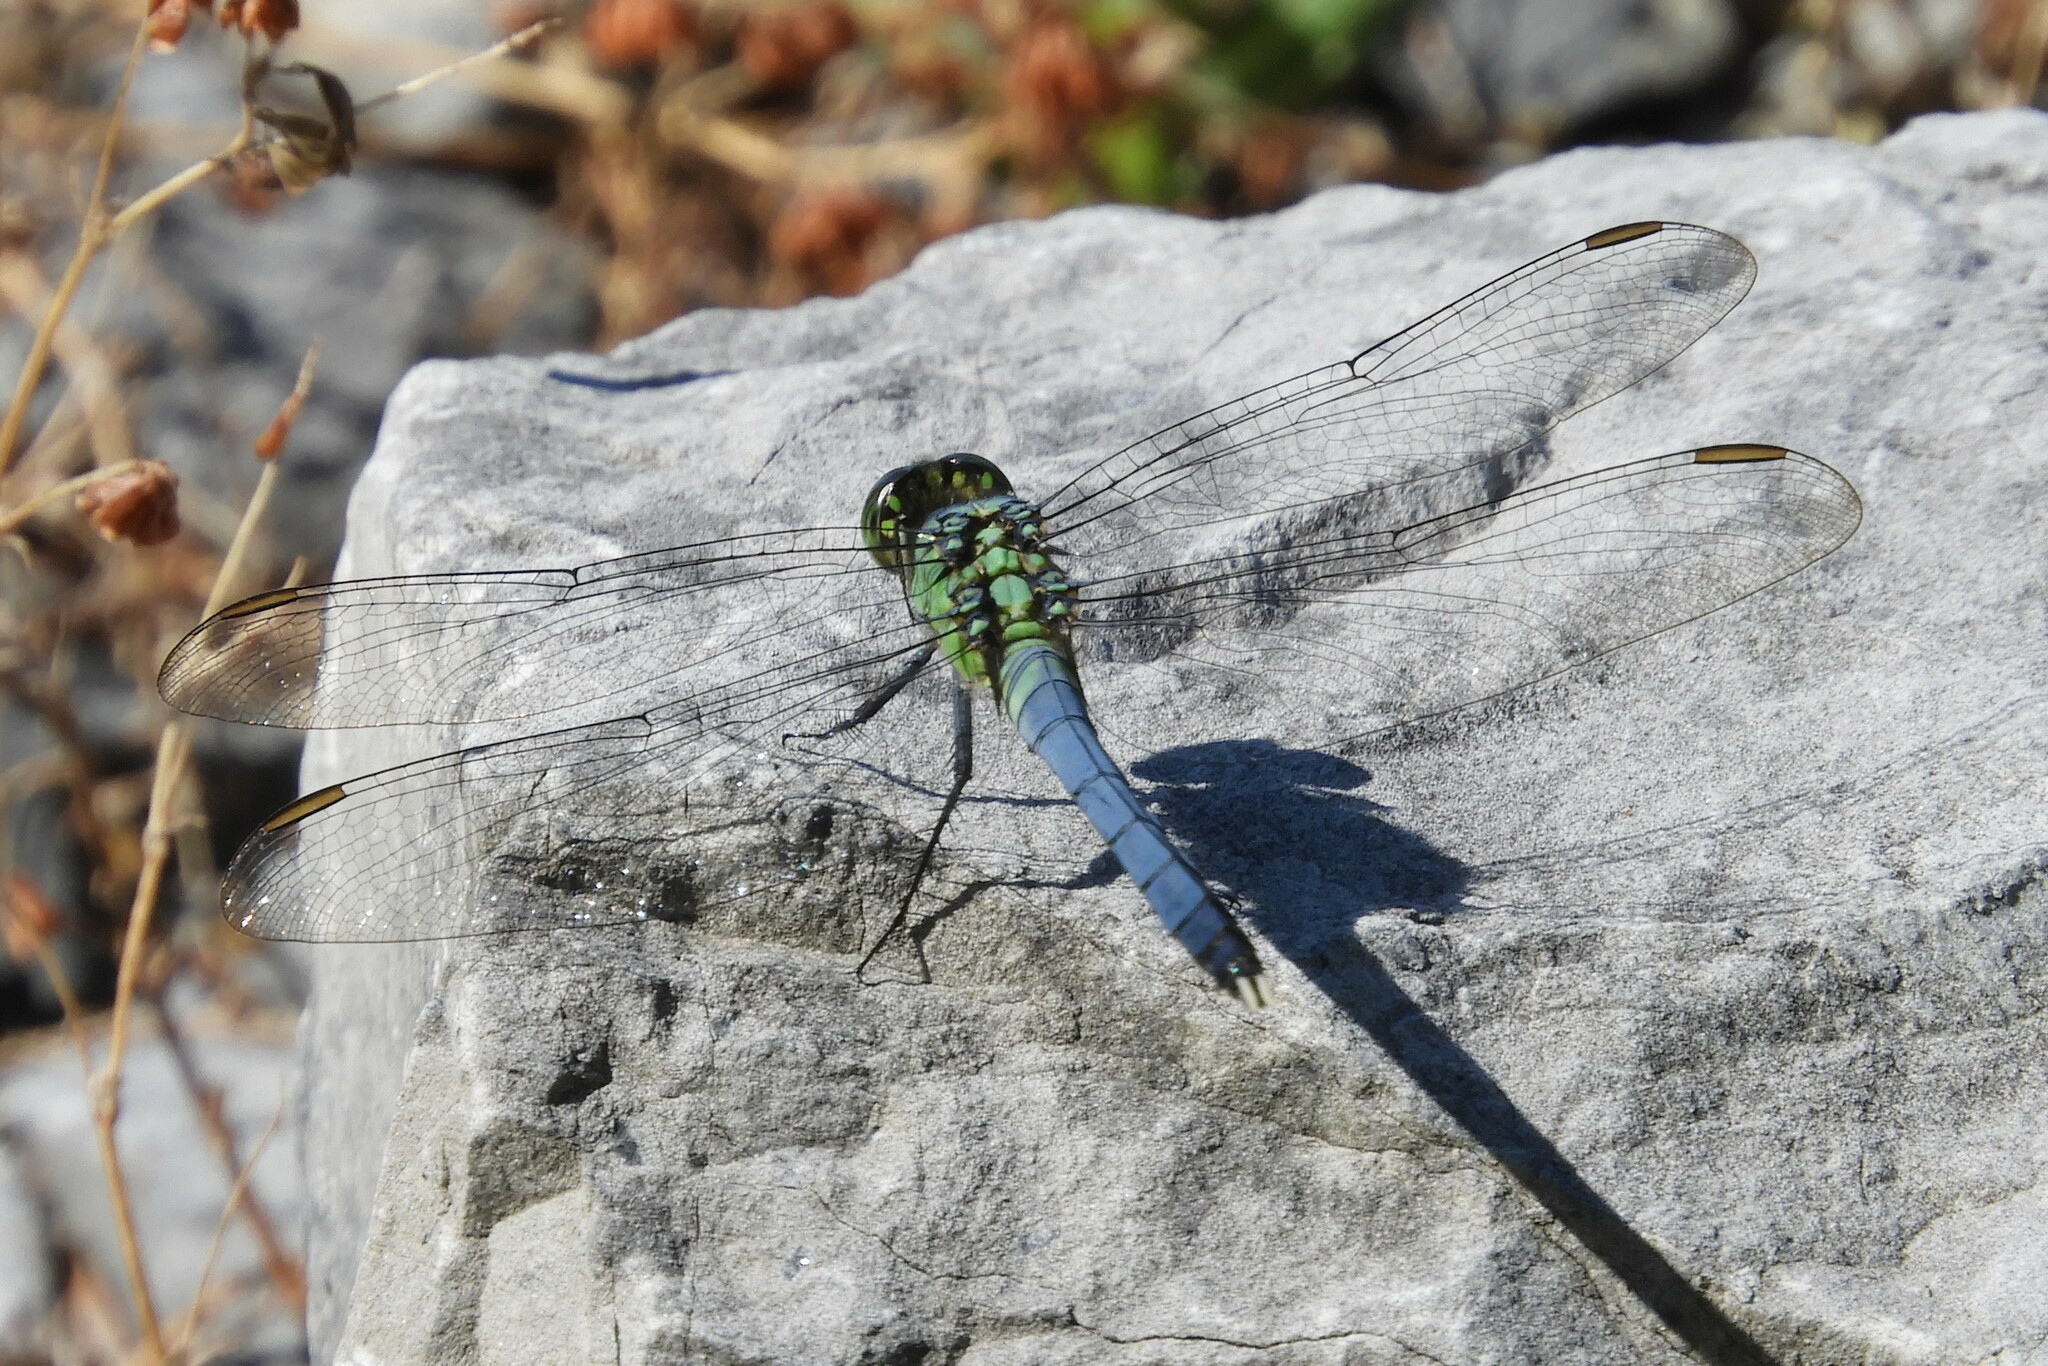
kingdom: Animalia
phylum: Arthropoda
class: Insecta
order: Odonata
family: Libellulidae
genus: Erythemis
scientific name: Erythemis simplicicollis
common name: Eastern pondhawk
